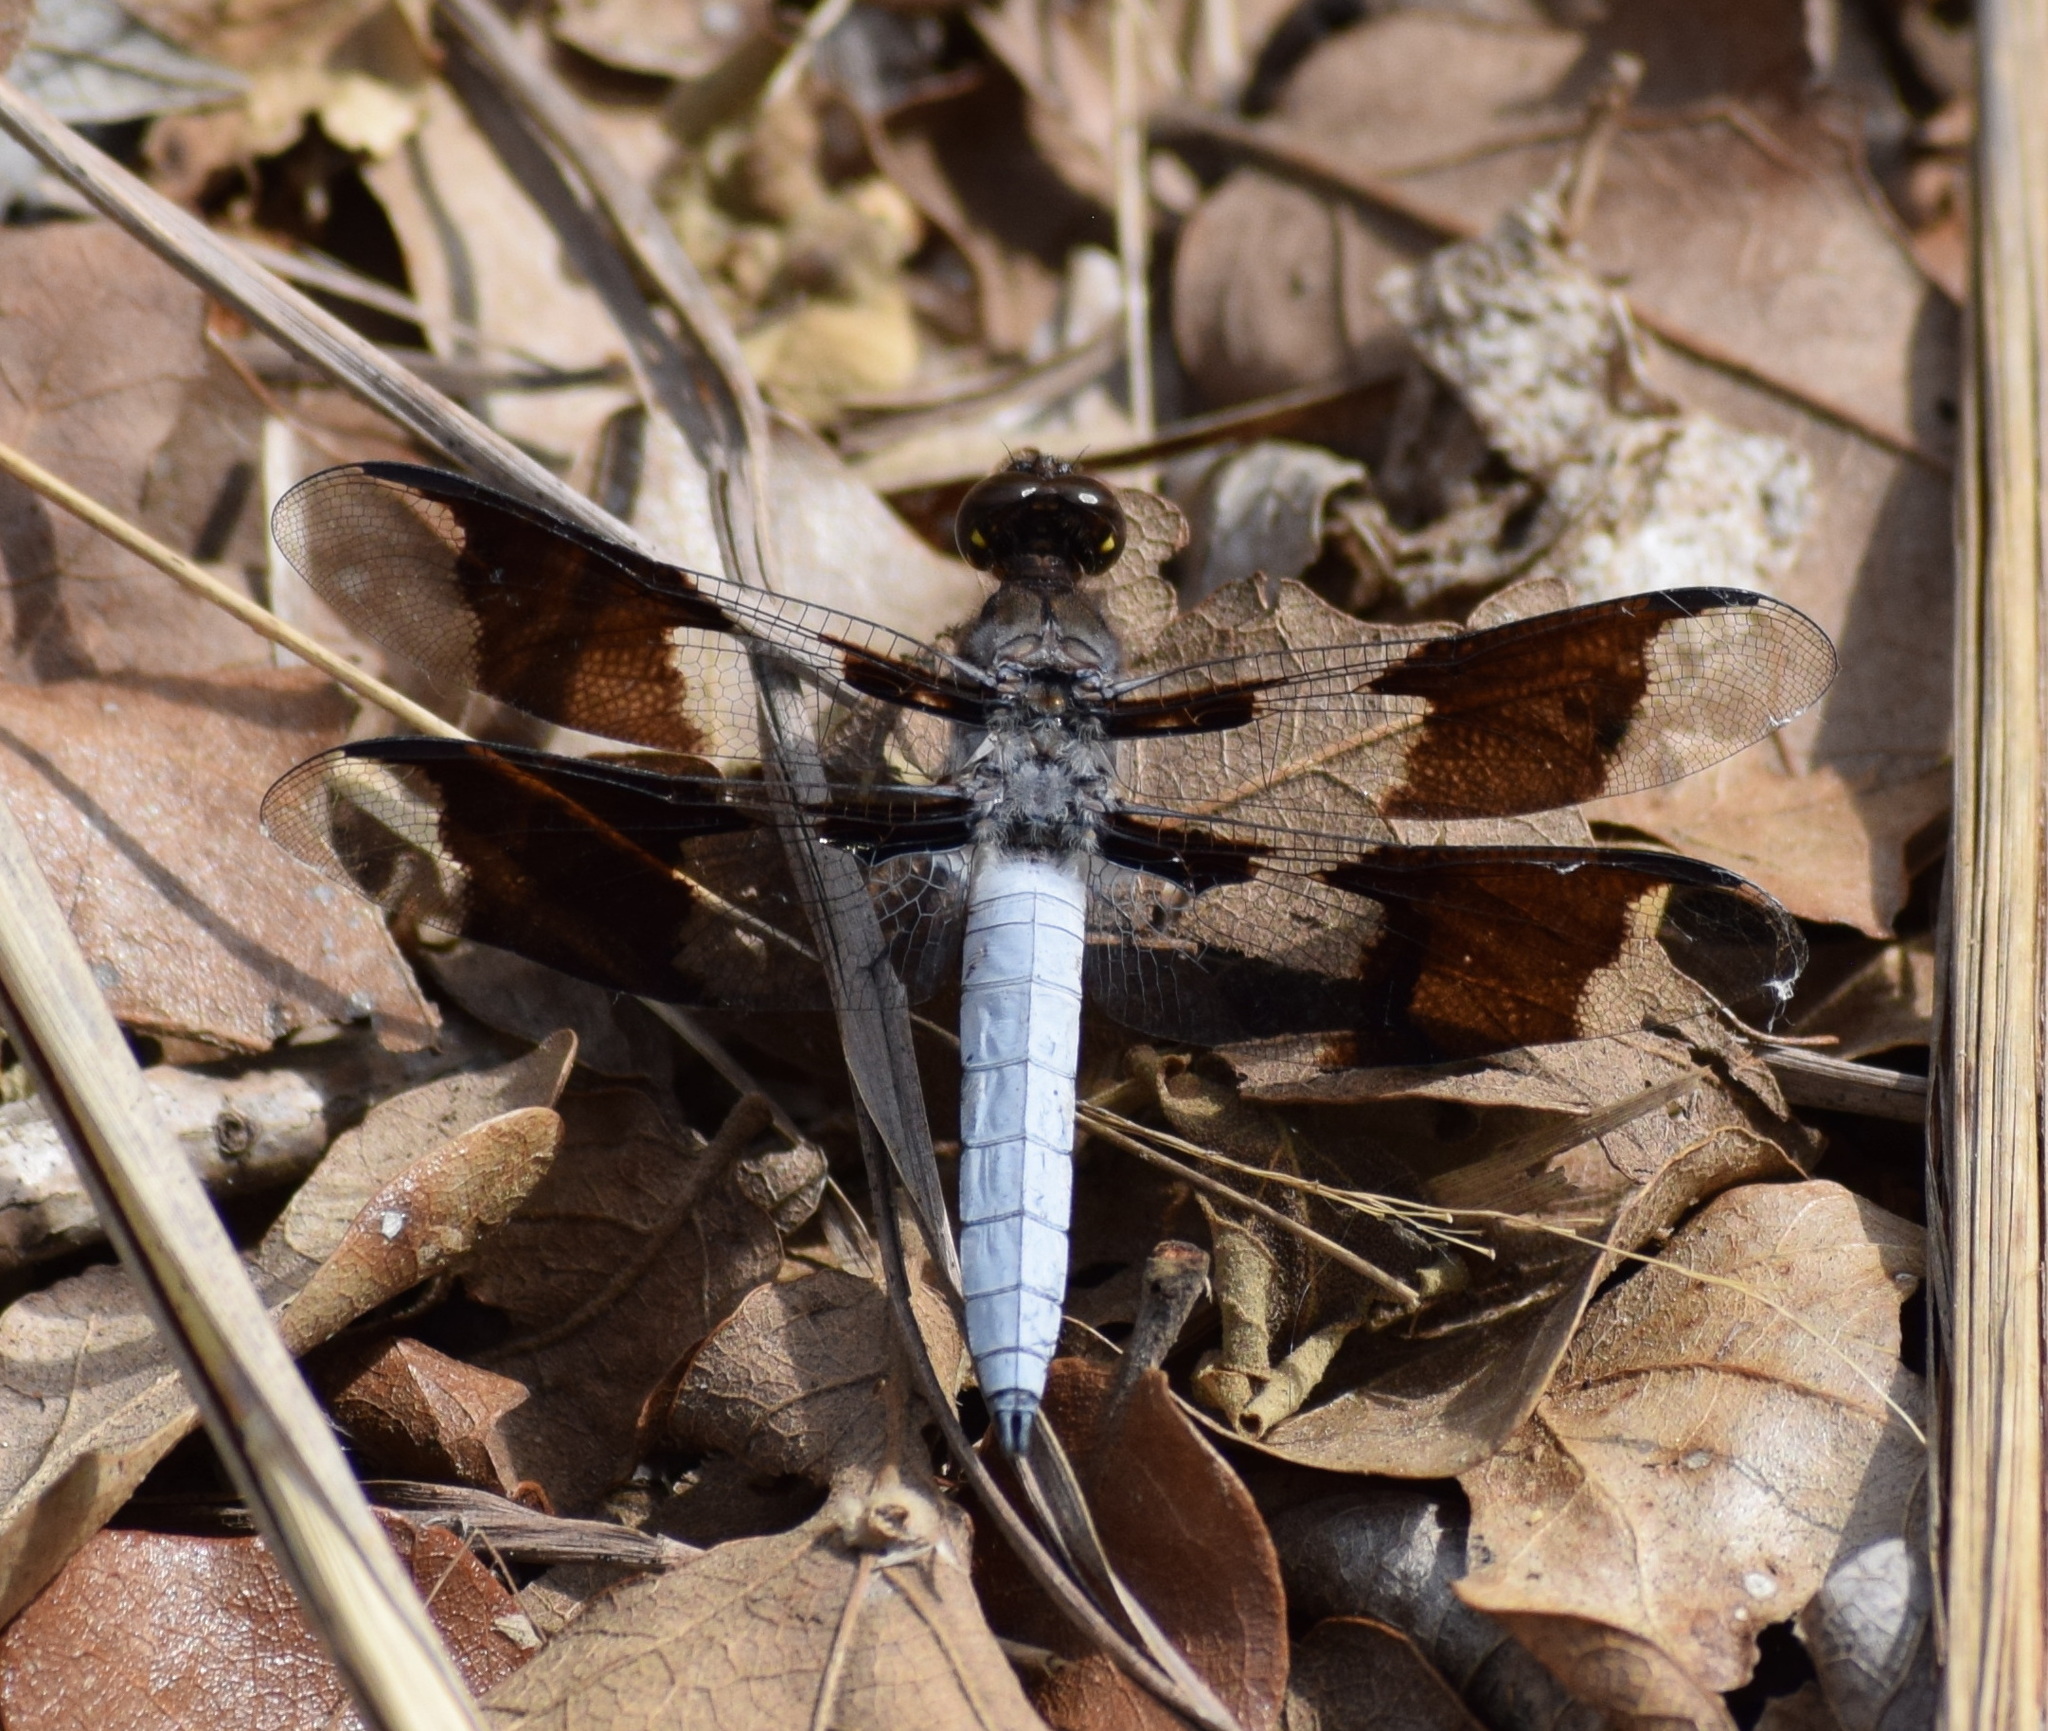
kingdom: Animalia
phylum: Arthropoda
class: Insecta
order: Odonata
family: Libellulidae
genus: Plathemis
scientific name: Plathemis lydia
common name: Common whitetail
